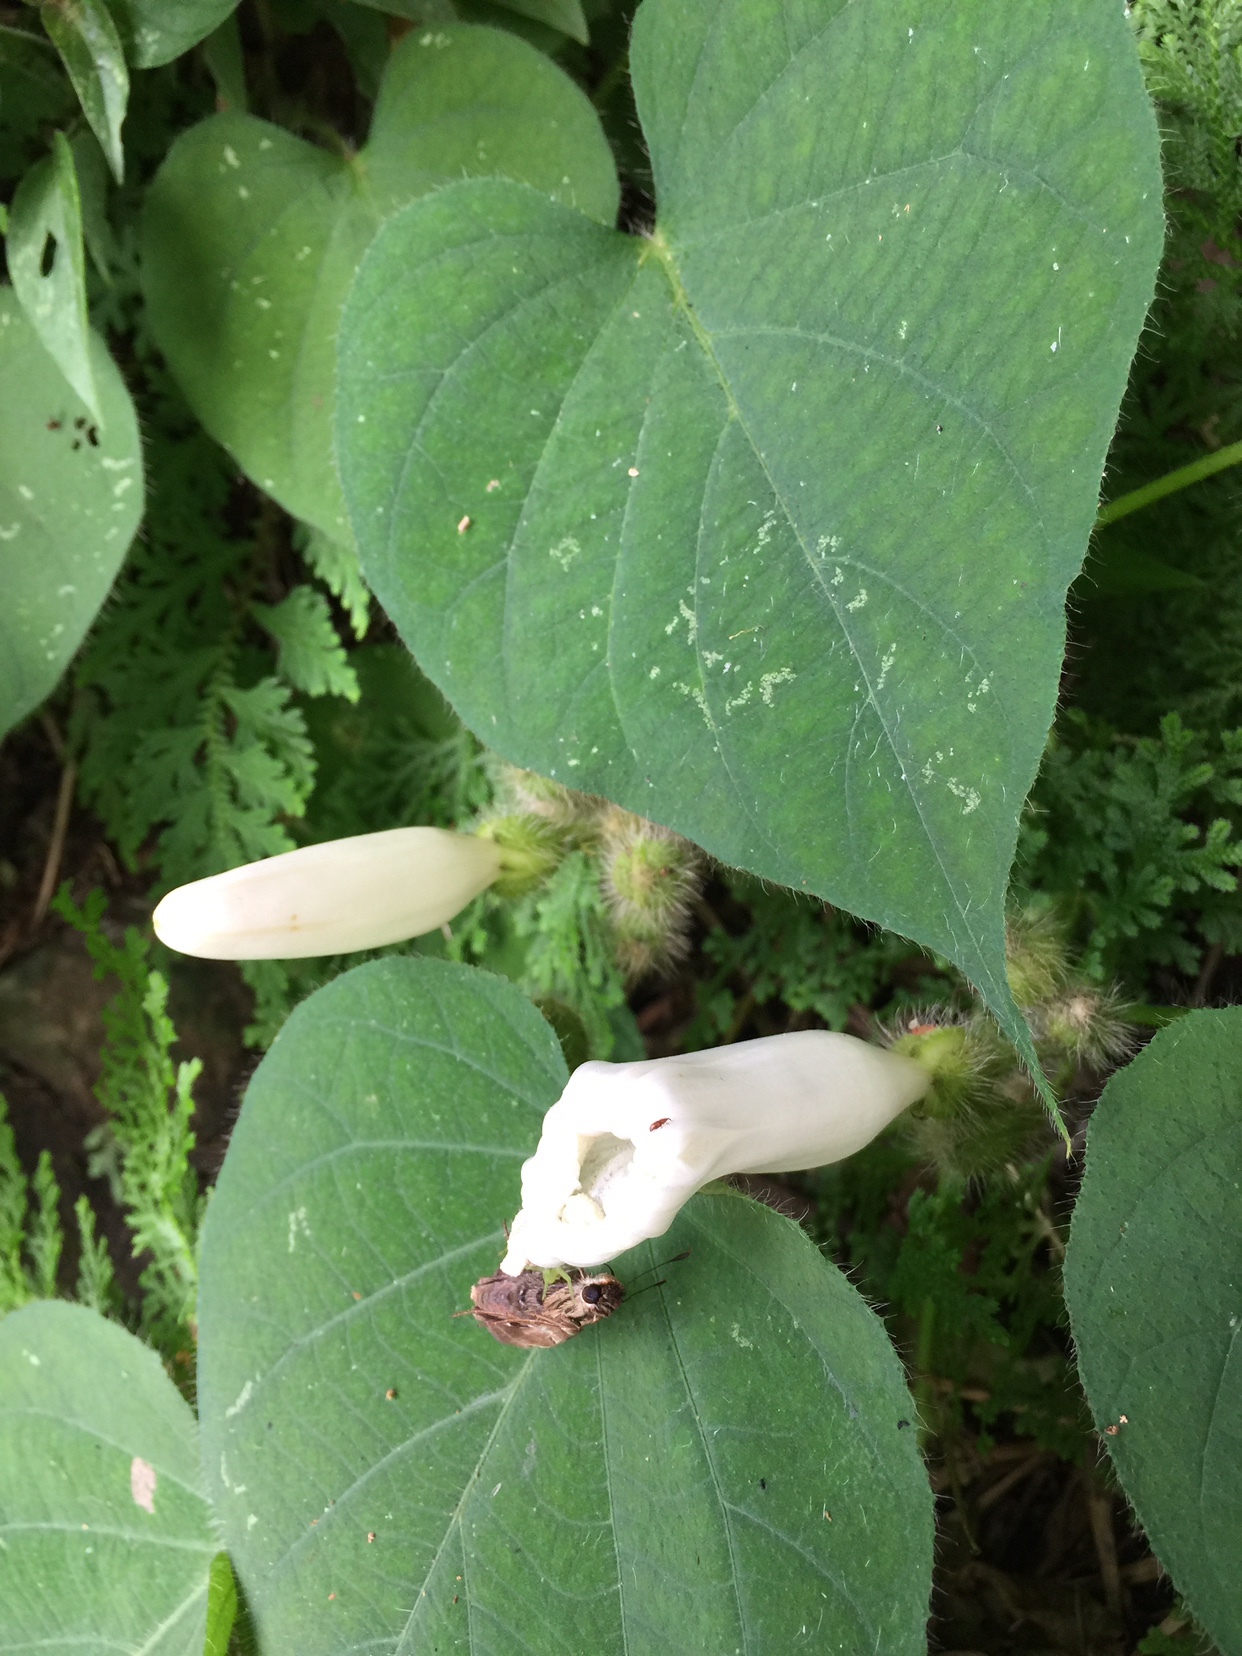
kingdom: Plantae
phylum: Tracheophyta
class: Magnoliopsida
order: Solanales
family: Convolvulaceae
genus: Ipomoea
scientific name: Ipomoea suaveolens
